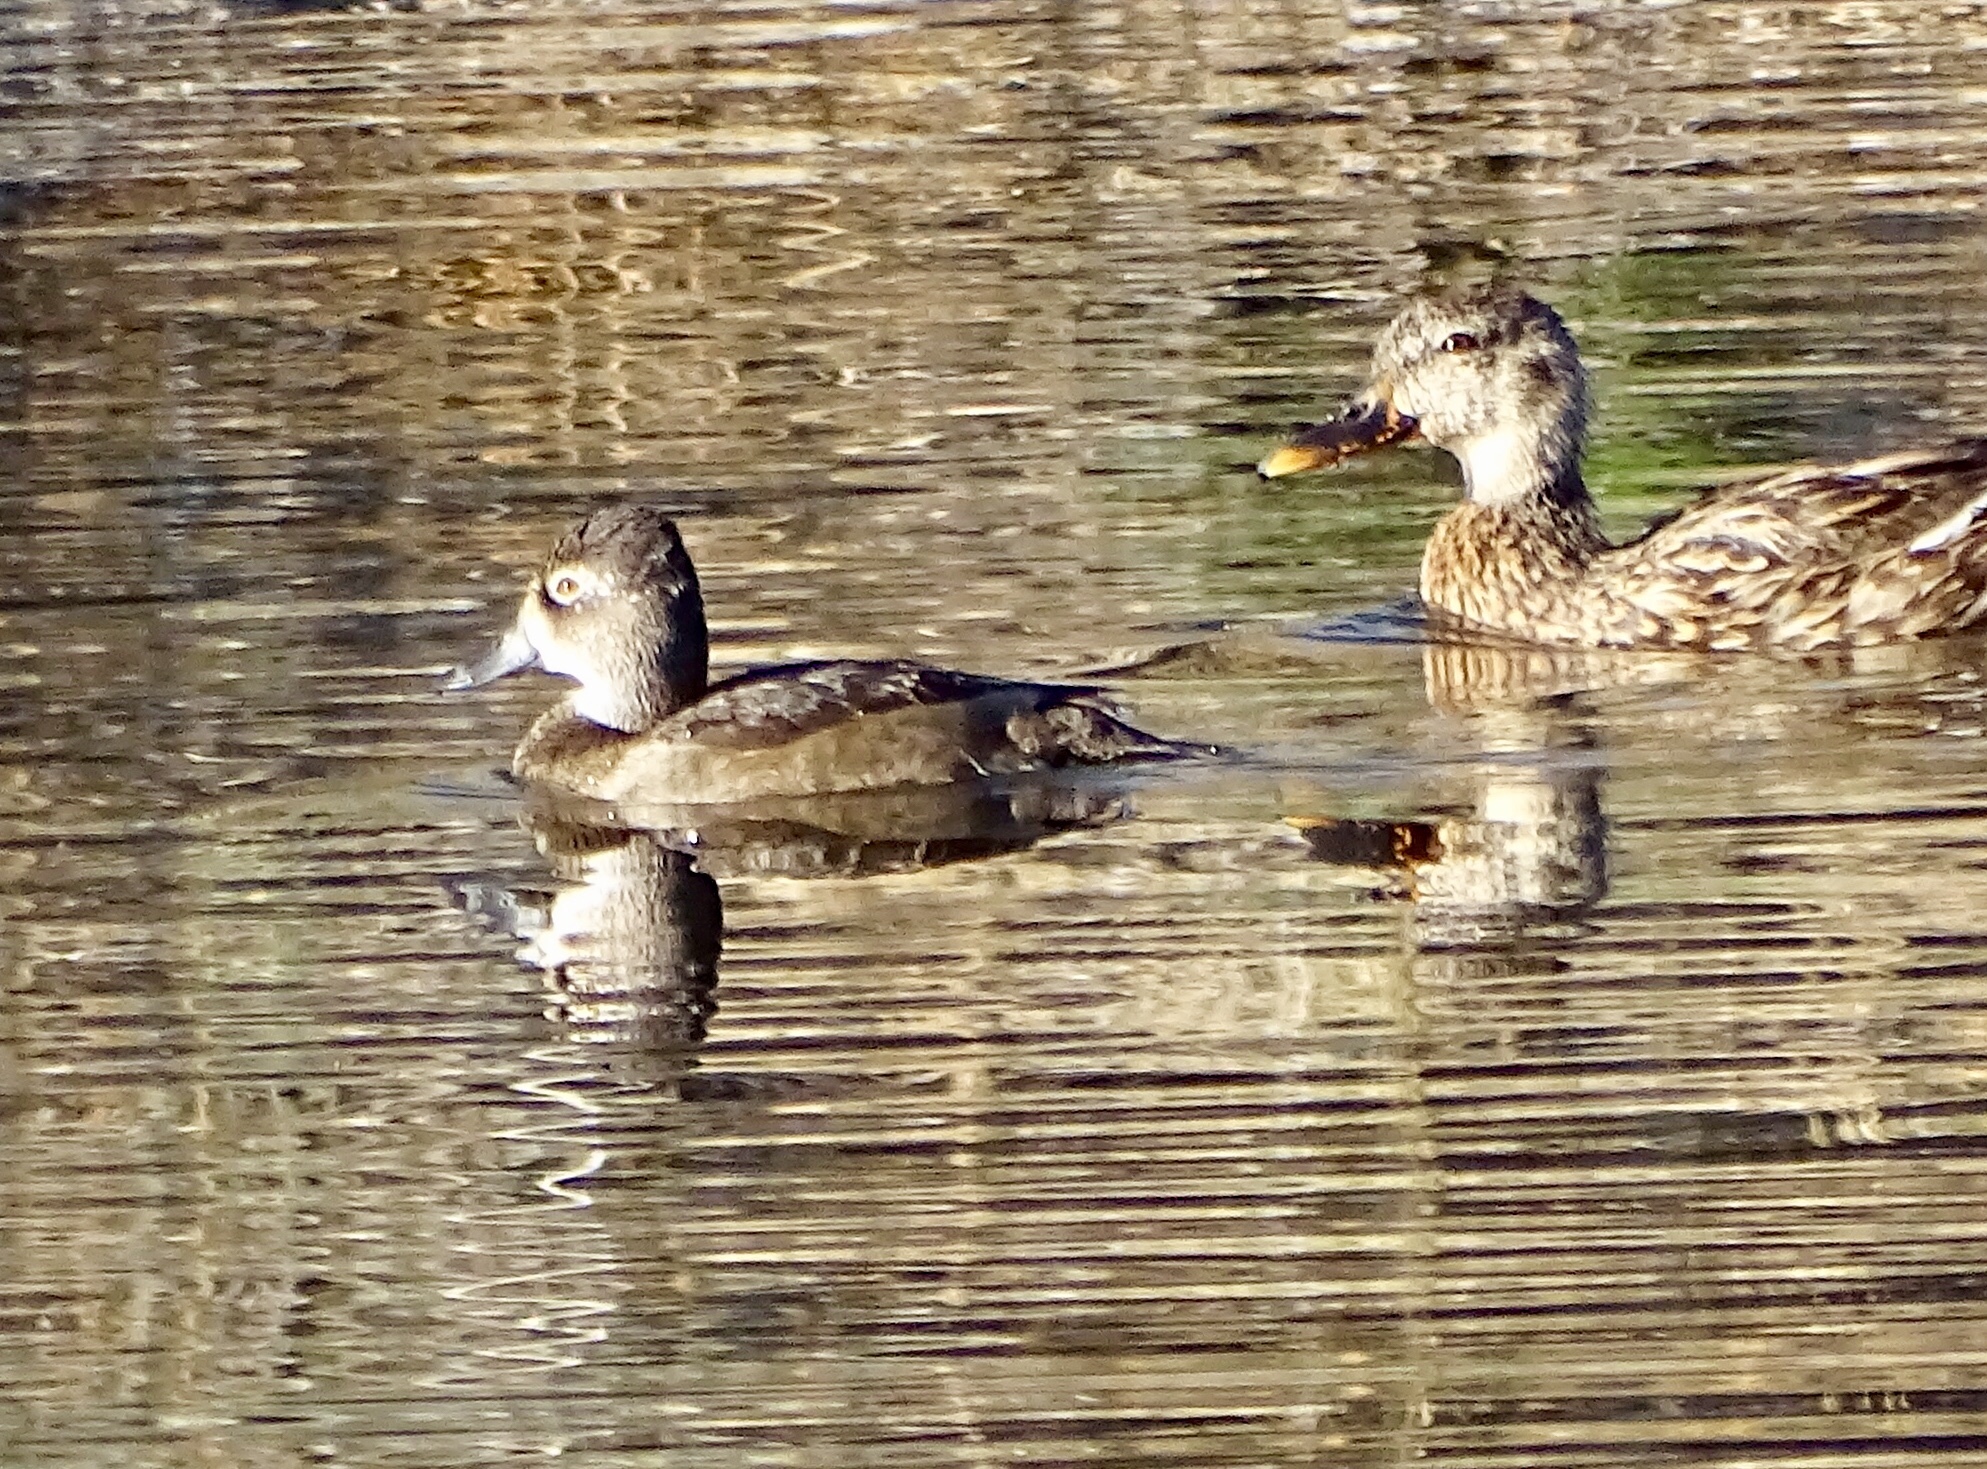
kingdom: Animalia
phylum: Chordata
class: Aves
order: Anseriformes
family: Anatidae
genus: Aythya
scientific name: Aythya collaris
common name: Ring-necked duck
